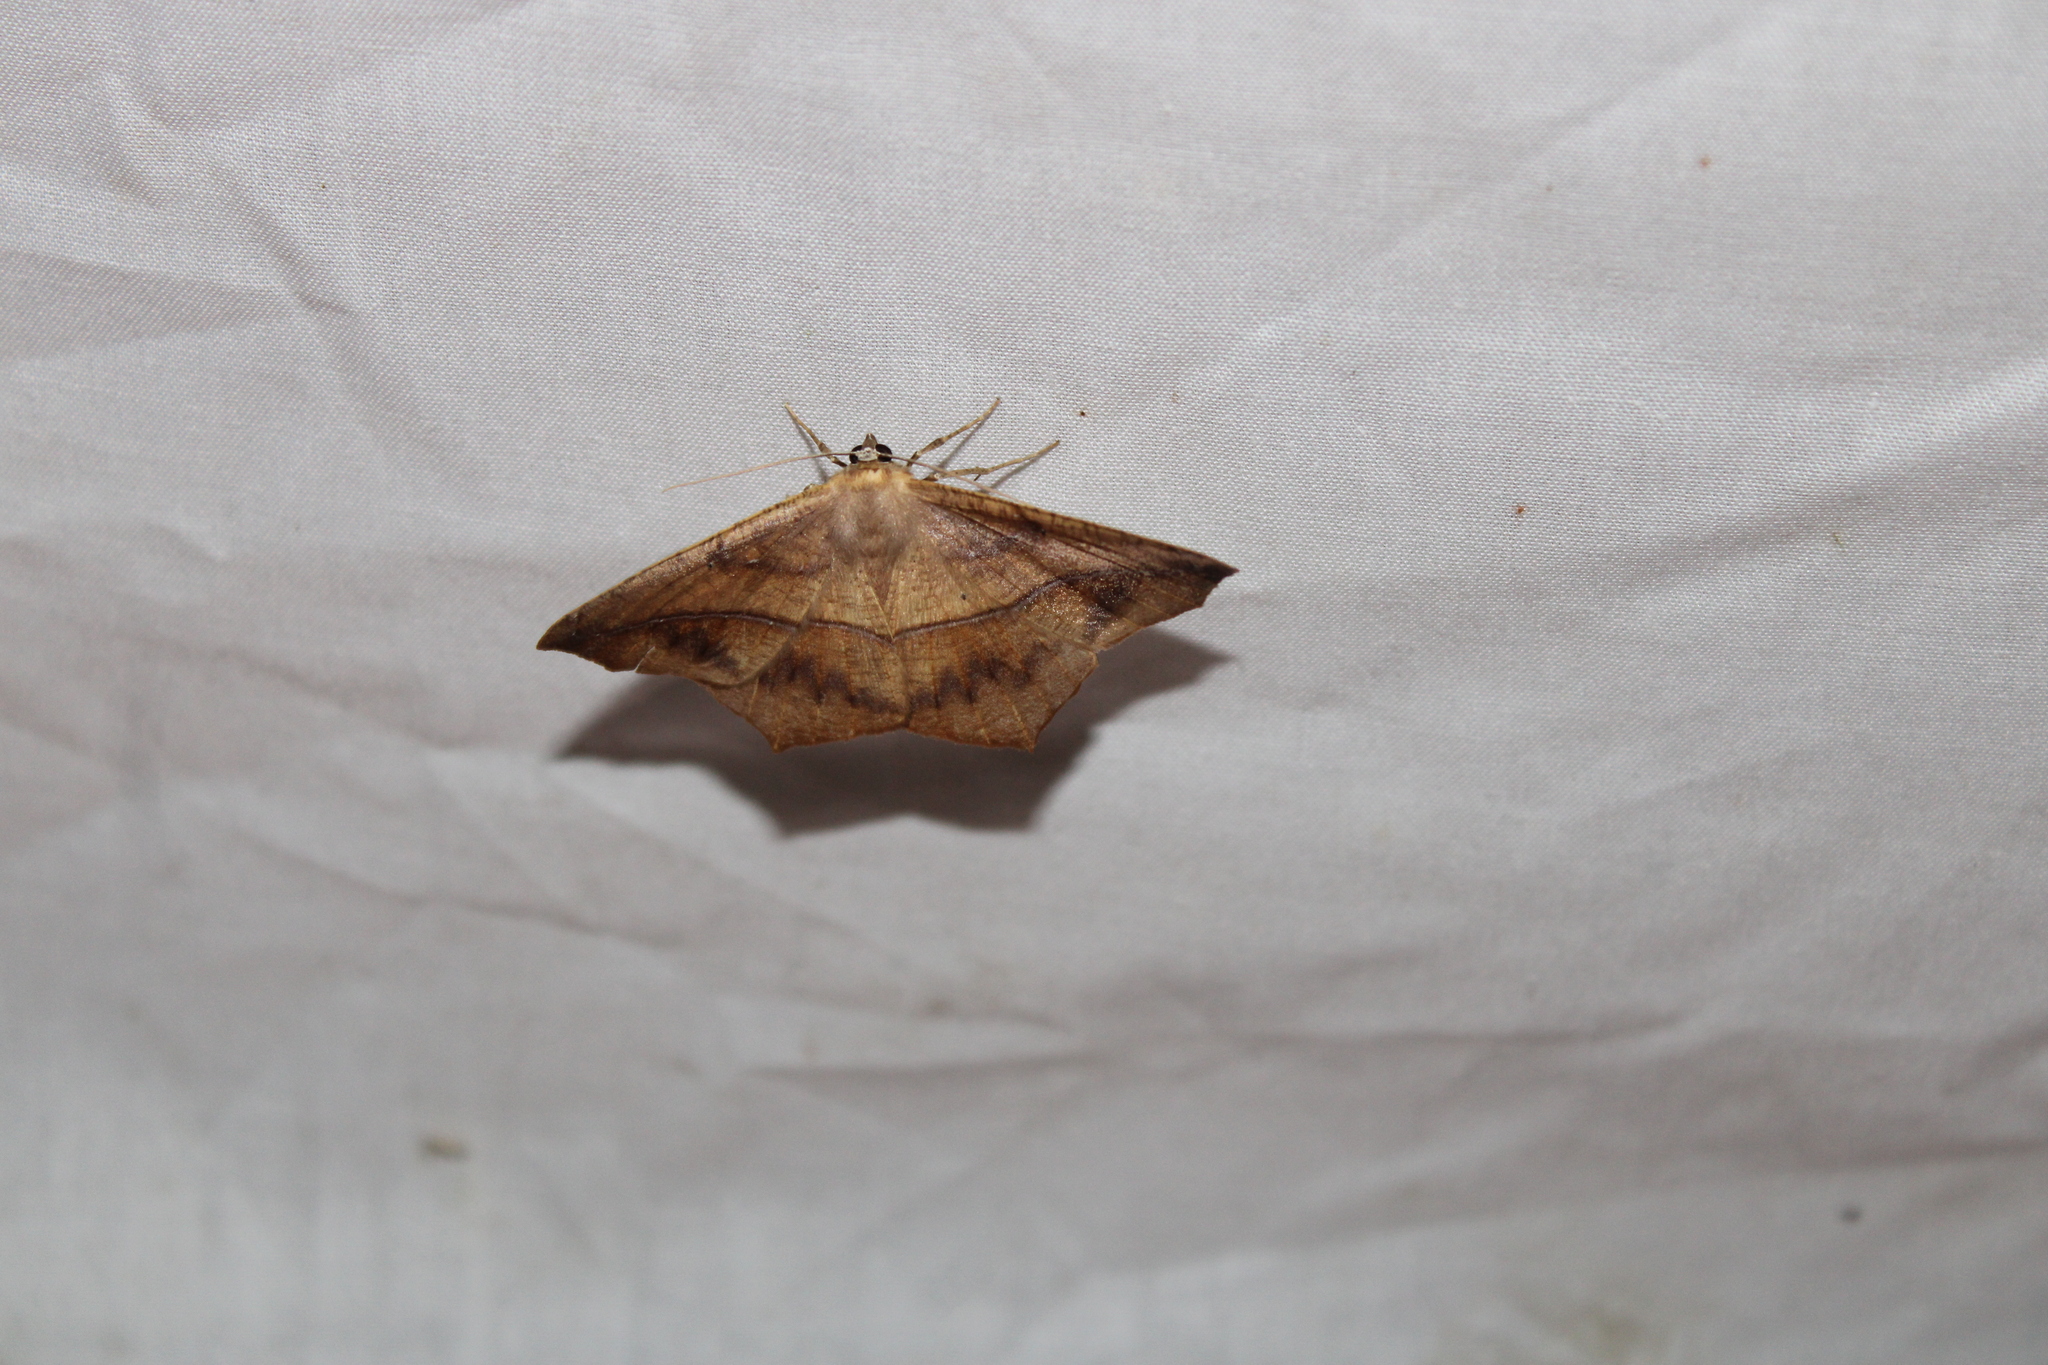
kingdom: Animalia
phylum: Arthropoda
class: Insecta
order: Lepidoptera
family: Geometridae
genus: Prochoerodes
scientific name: Prochoerodes lineola
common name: Large maple spanworm
